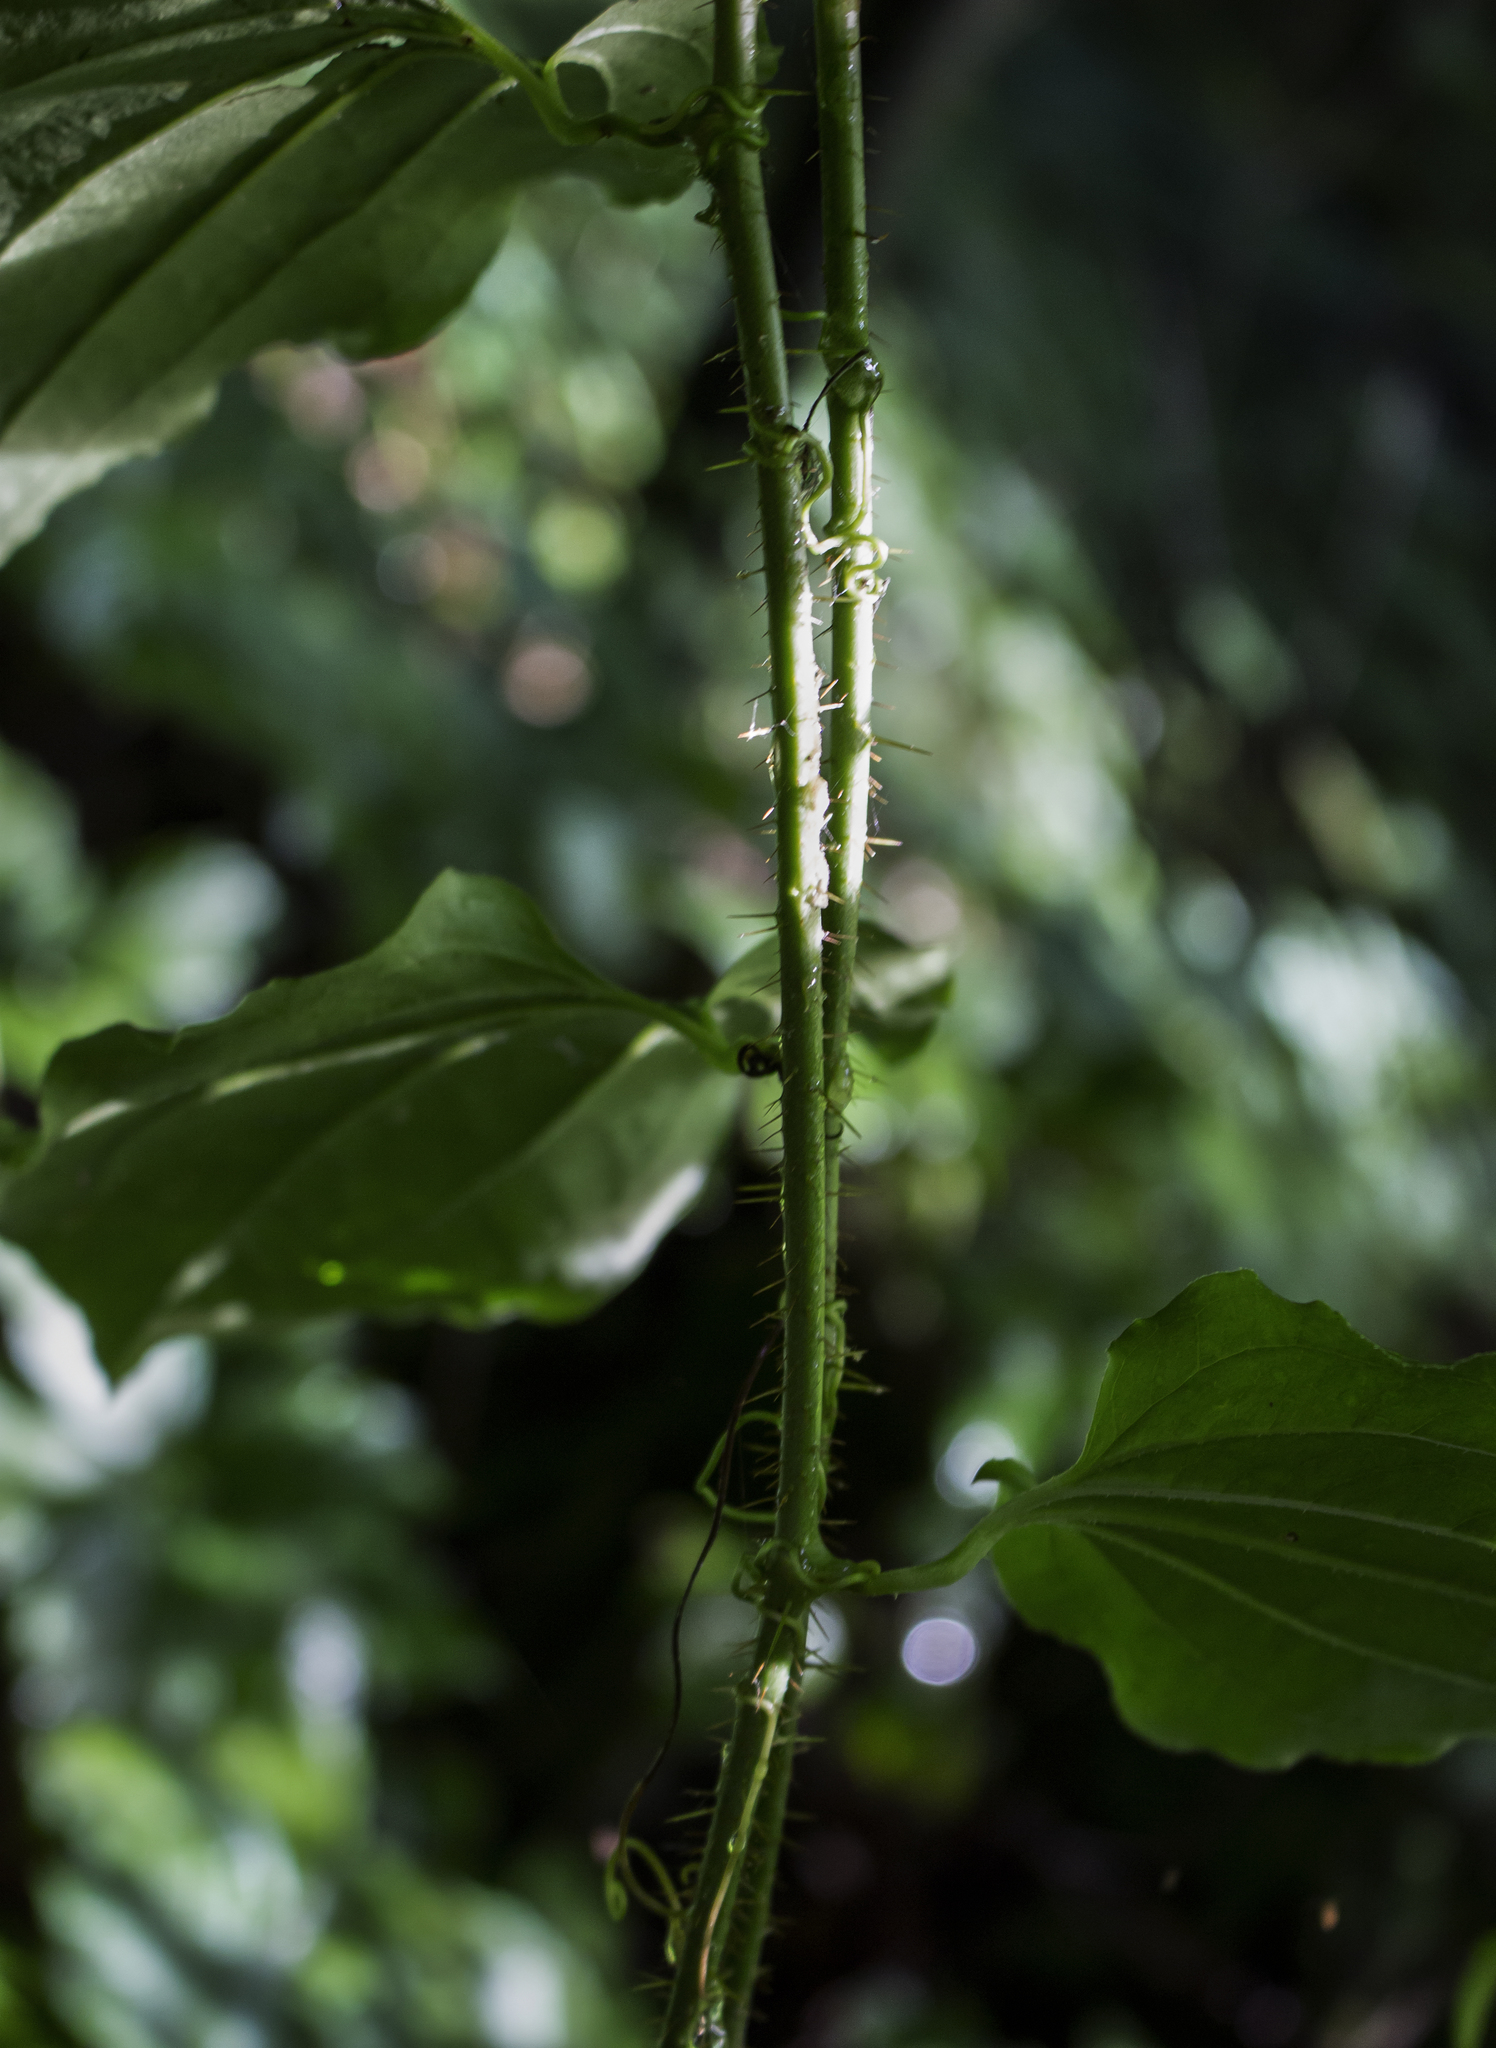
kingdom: Plantae
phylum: Tracheophyta
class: Liliopsida
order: Liliales
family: Smilacaceae
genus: Smilax
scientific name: Smilax tamnoides
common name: Hellfetter
